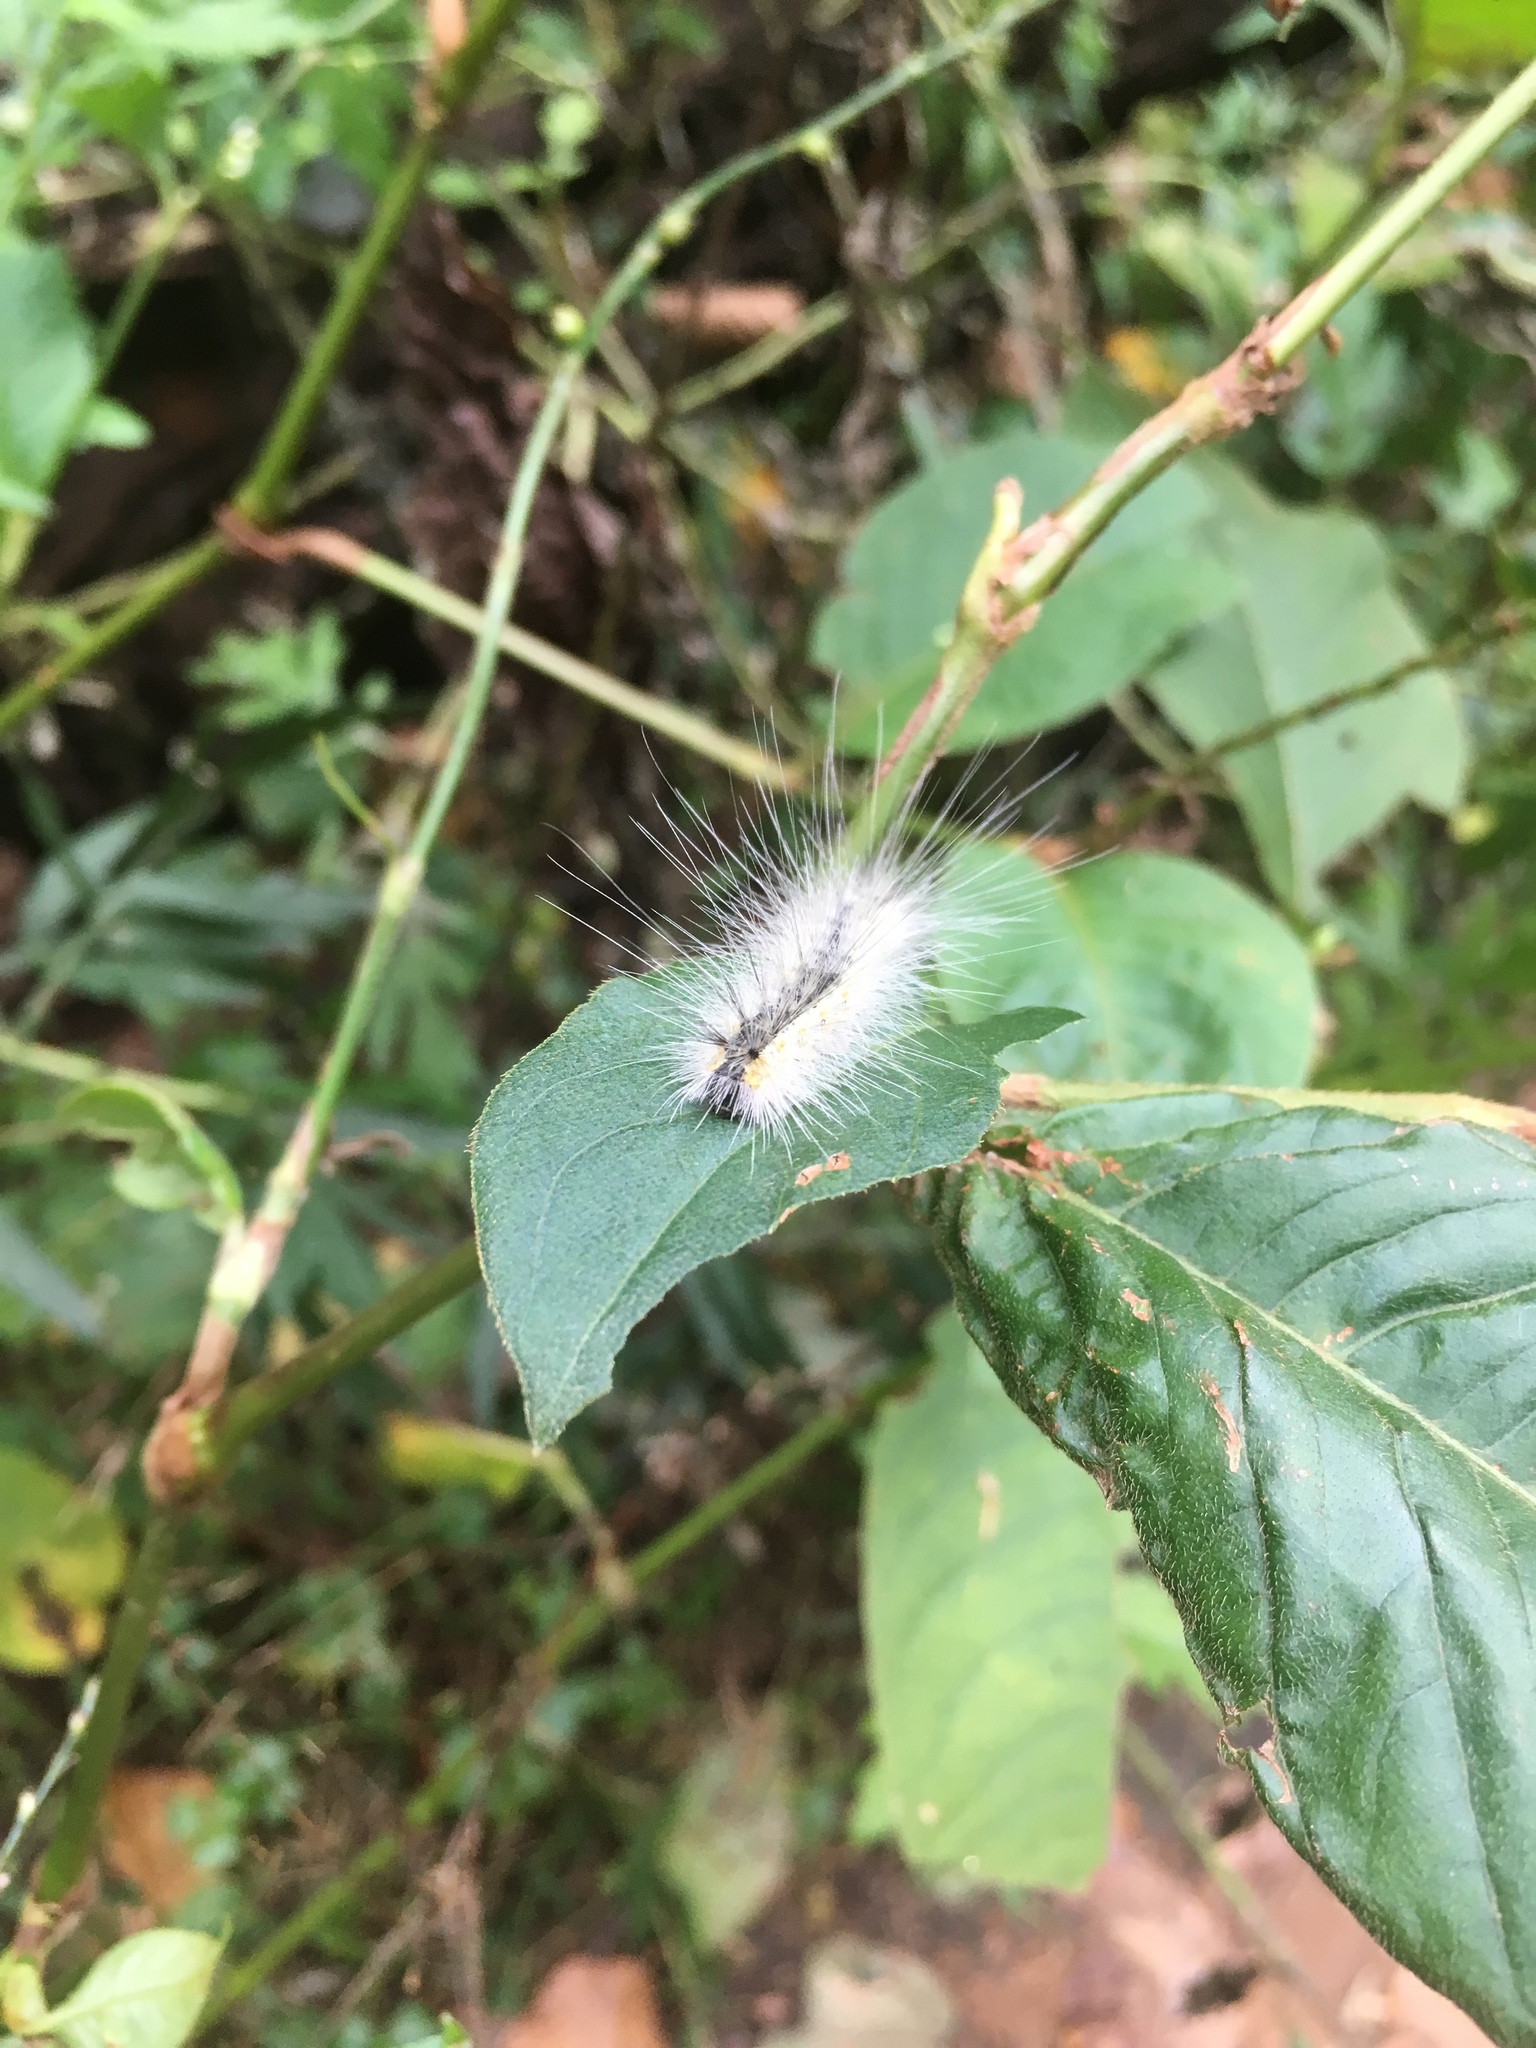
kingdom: Animalia
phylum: Arthropoda
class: Insecta
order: Lepidoptera
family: Erebidae
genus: Hyphantria
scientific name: Hyphantria cunea
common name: American white moth
